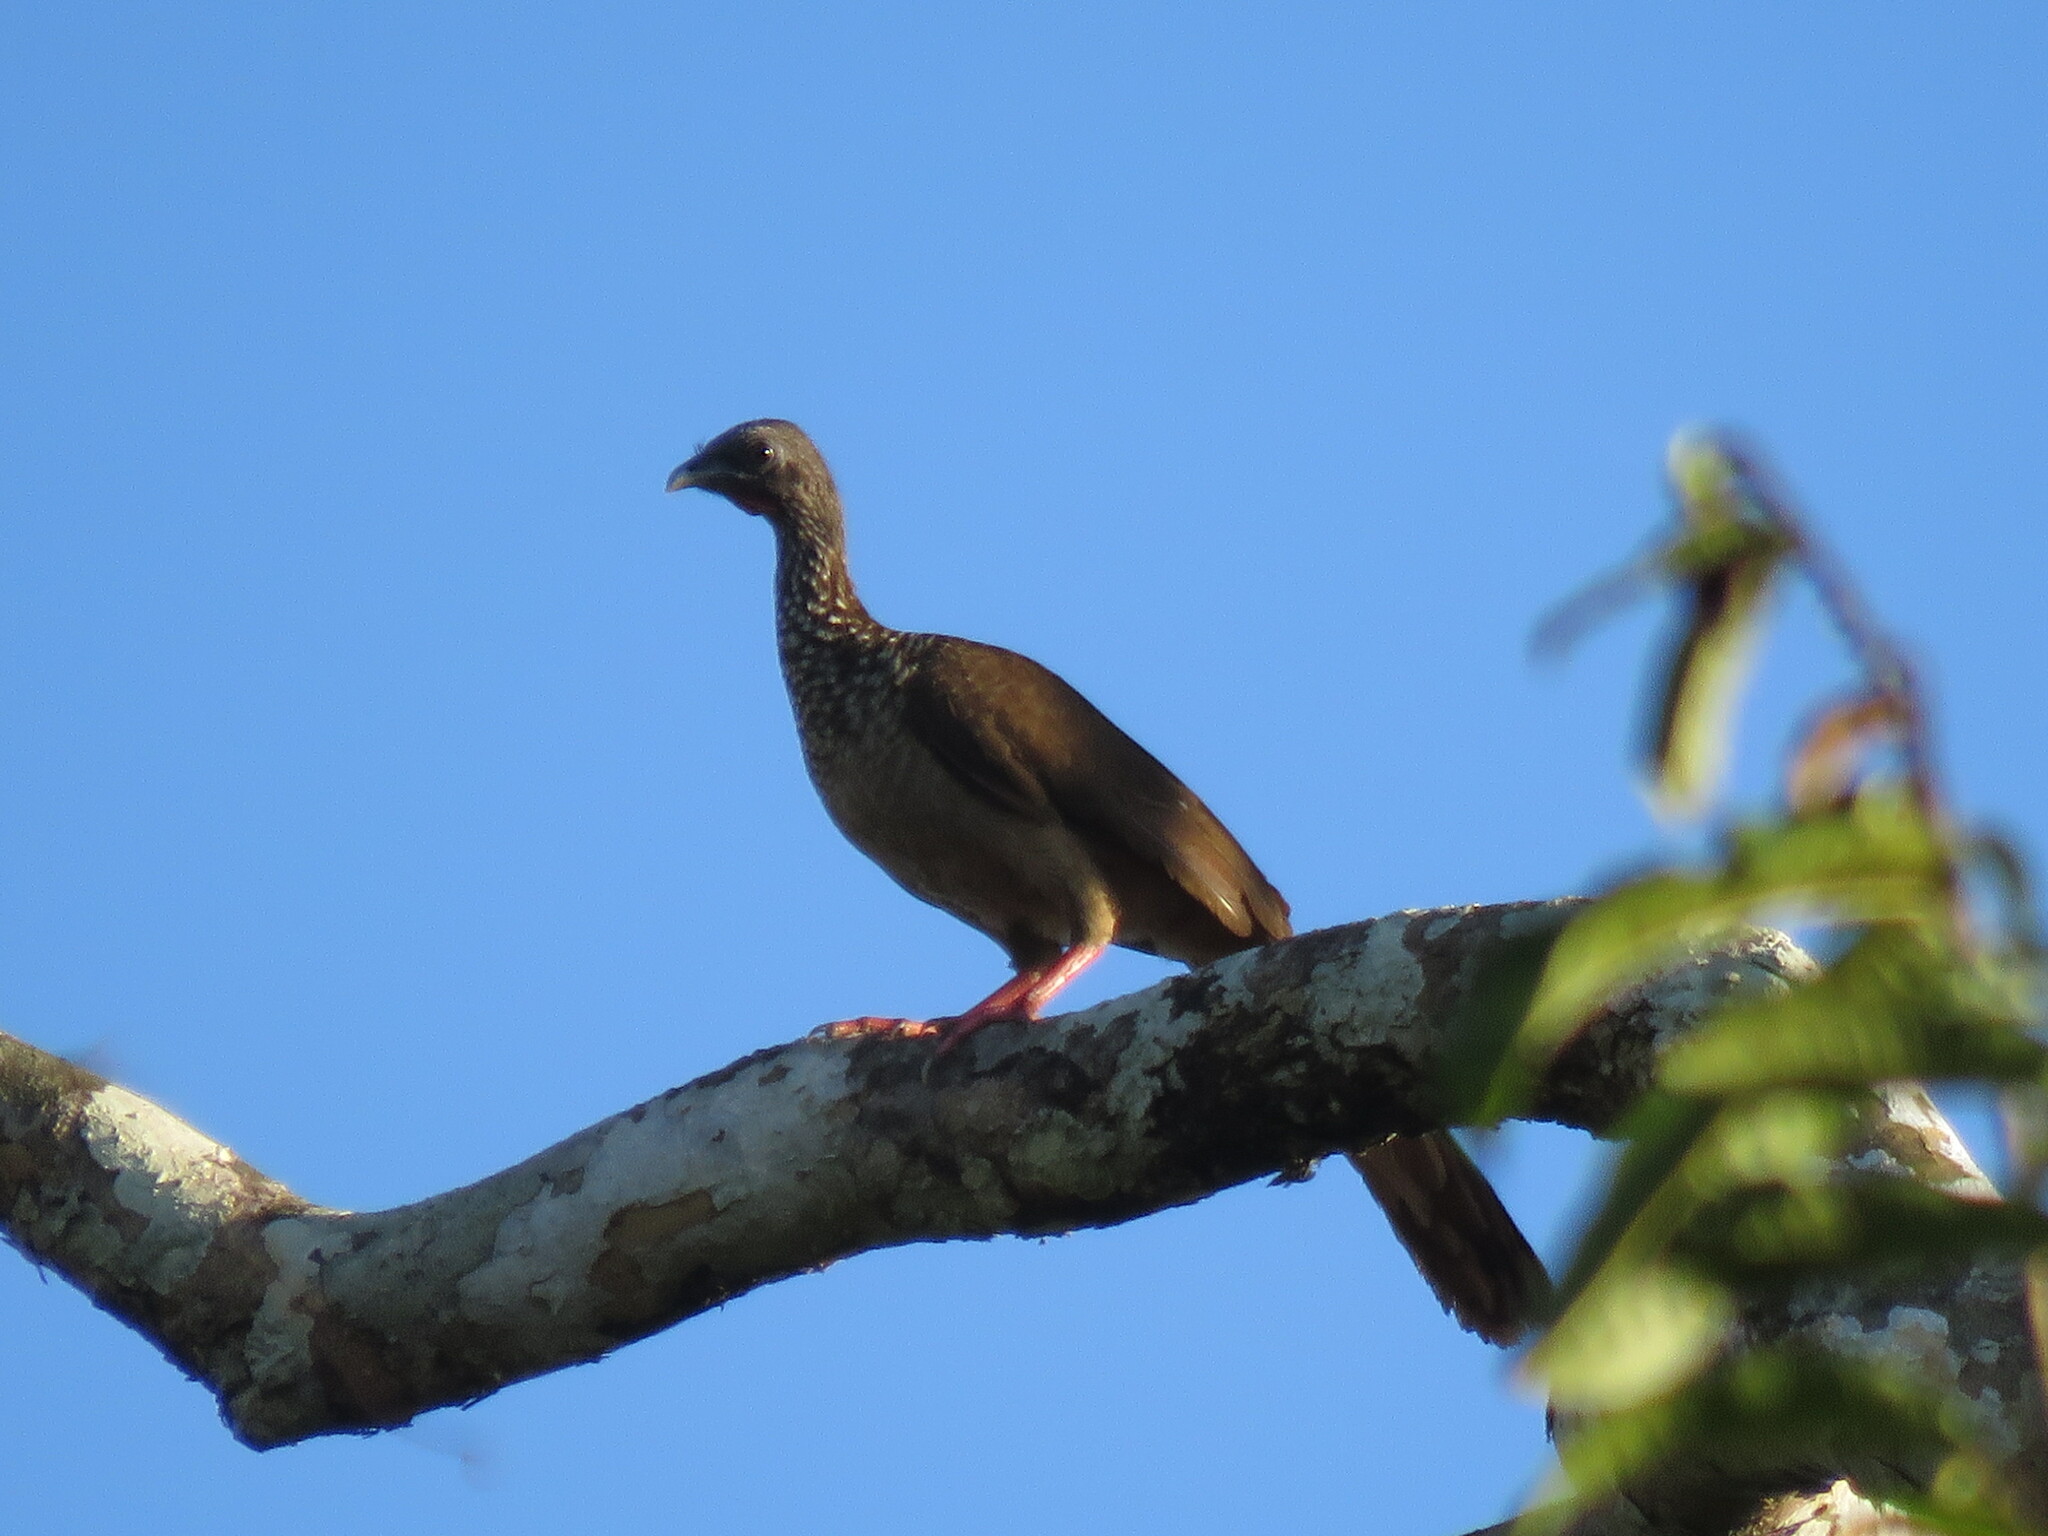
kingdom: Animalia
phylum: Chordata
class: Aves
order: Galliformes
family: Cracidae
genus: Ortalis
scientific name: Ortalis guttata
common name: Speckled chachalaca
